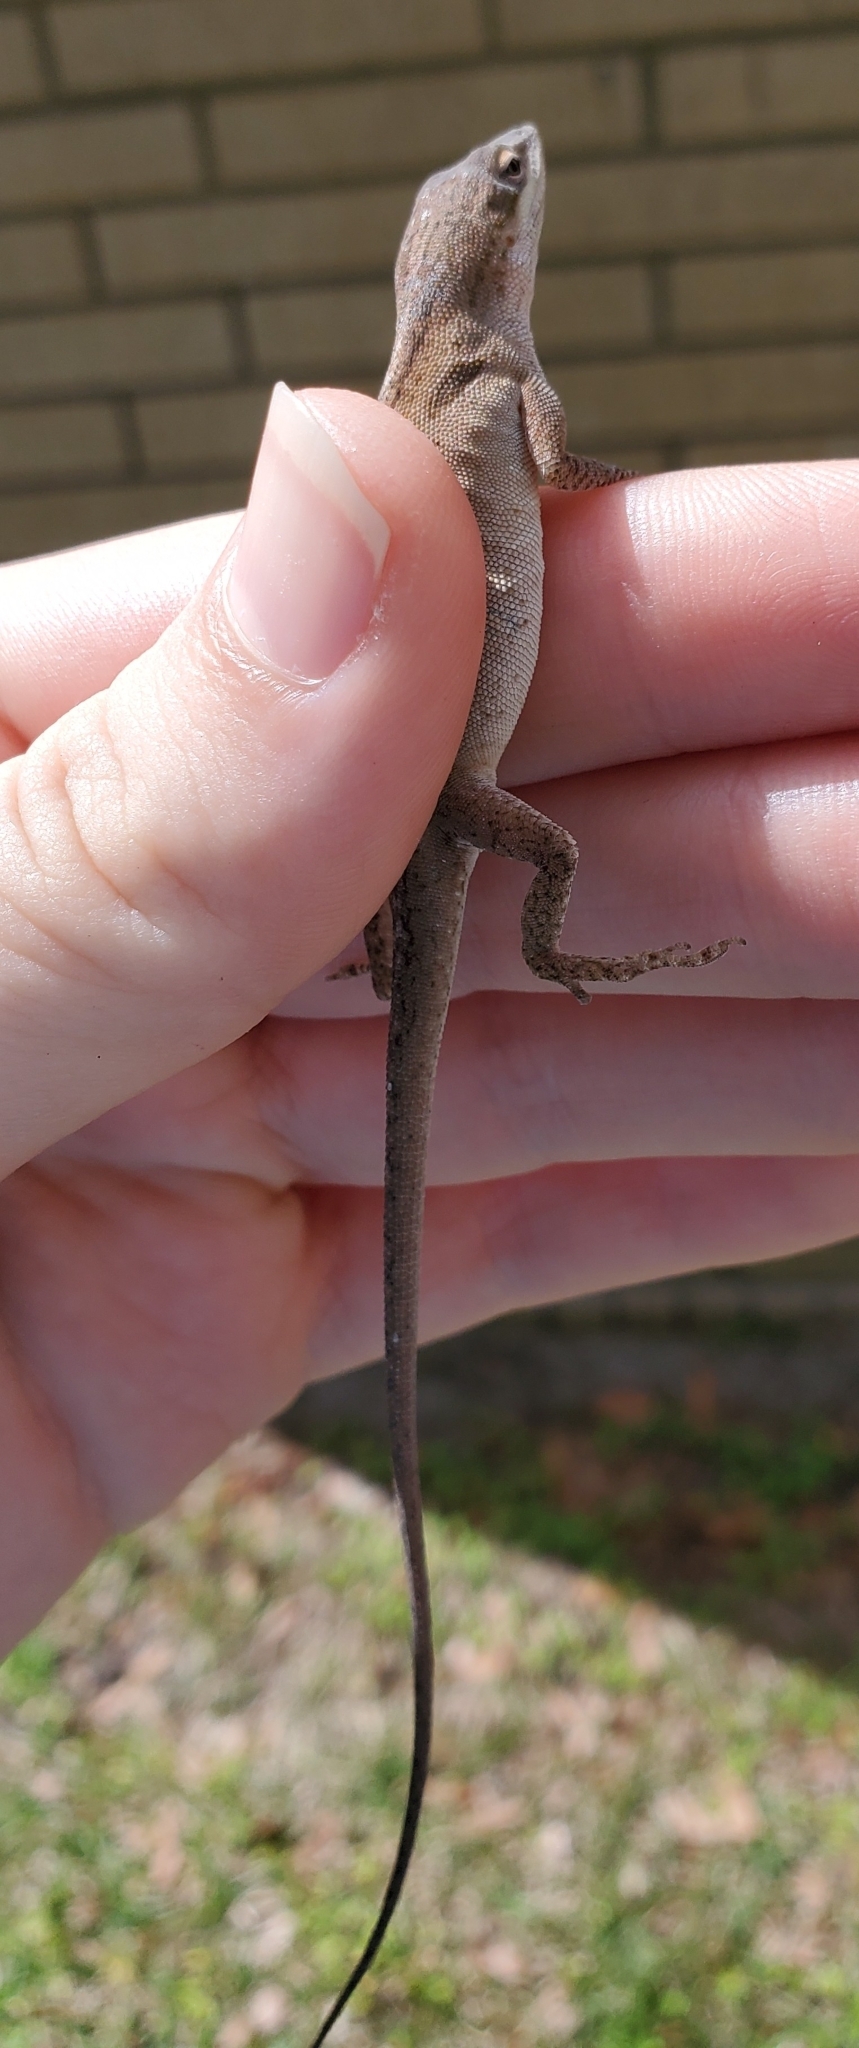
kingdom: Animalia
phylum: Chordata
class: Squamata
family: Dactyloidae
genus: Anolis
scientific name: Anolis carolinensis
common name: Green anole
